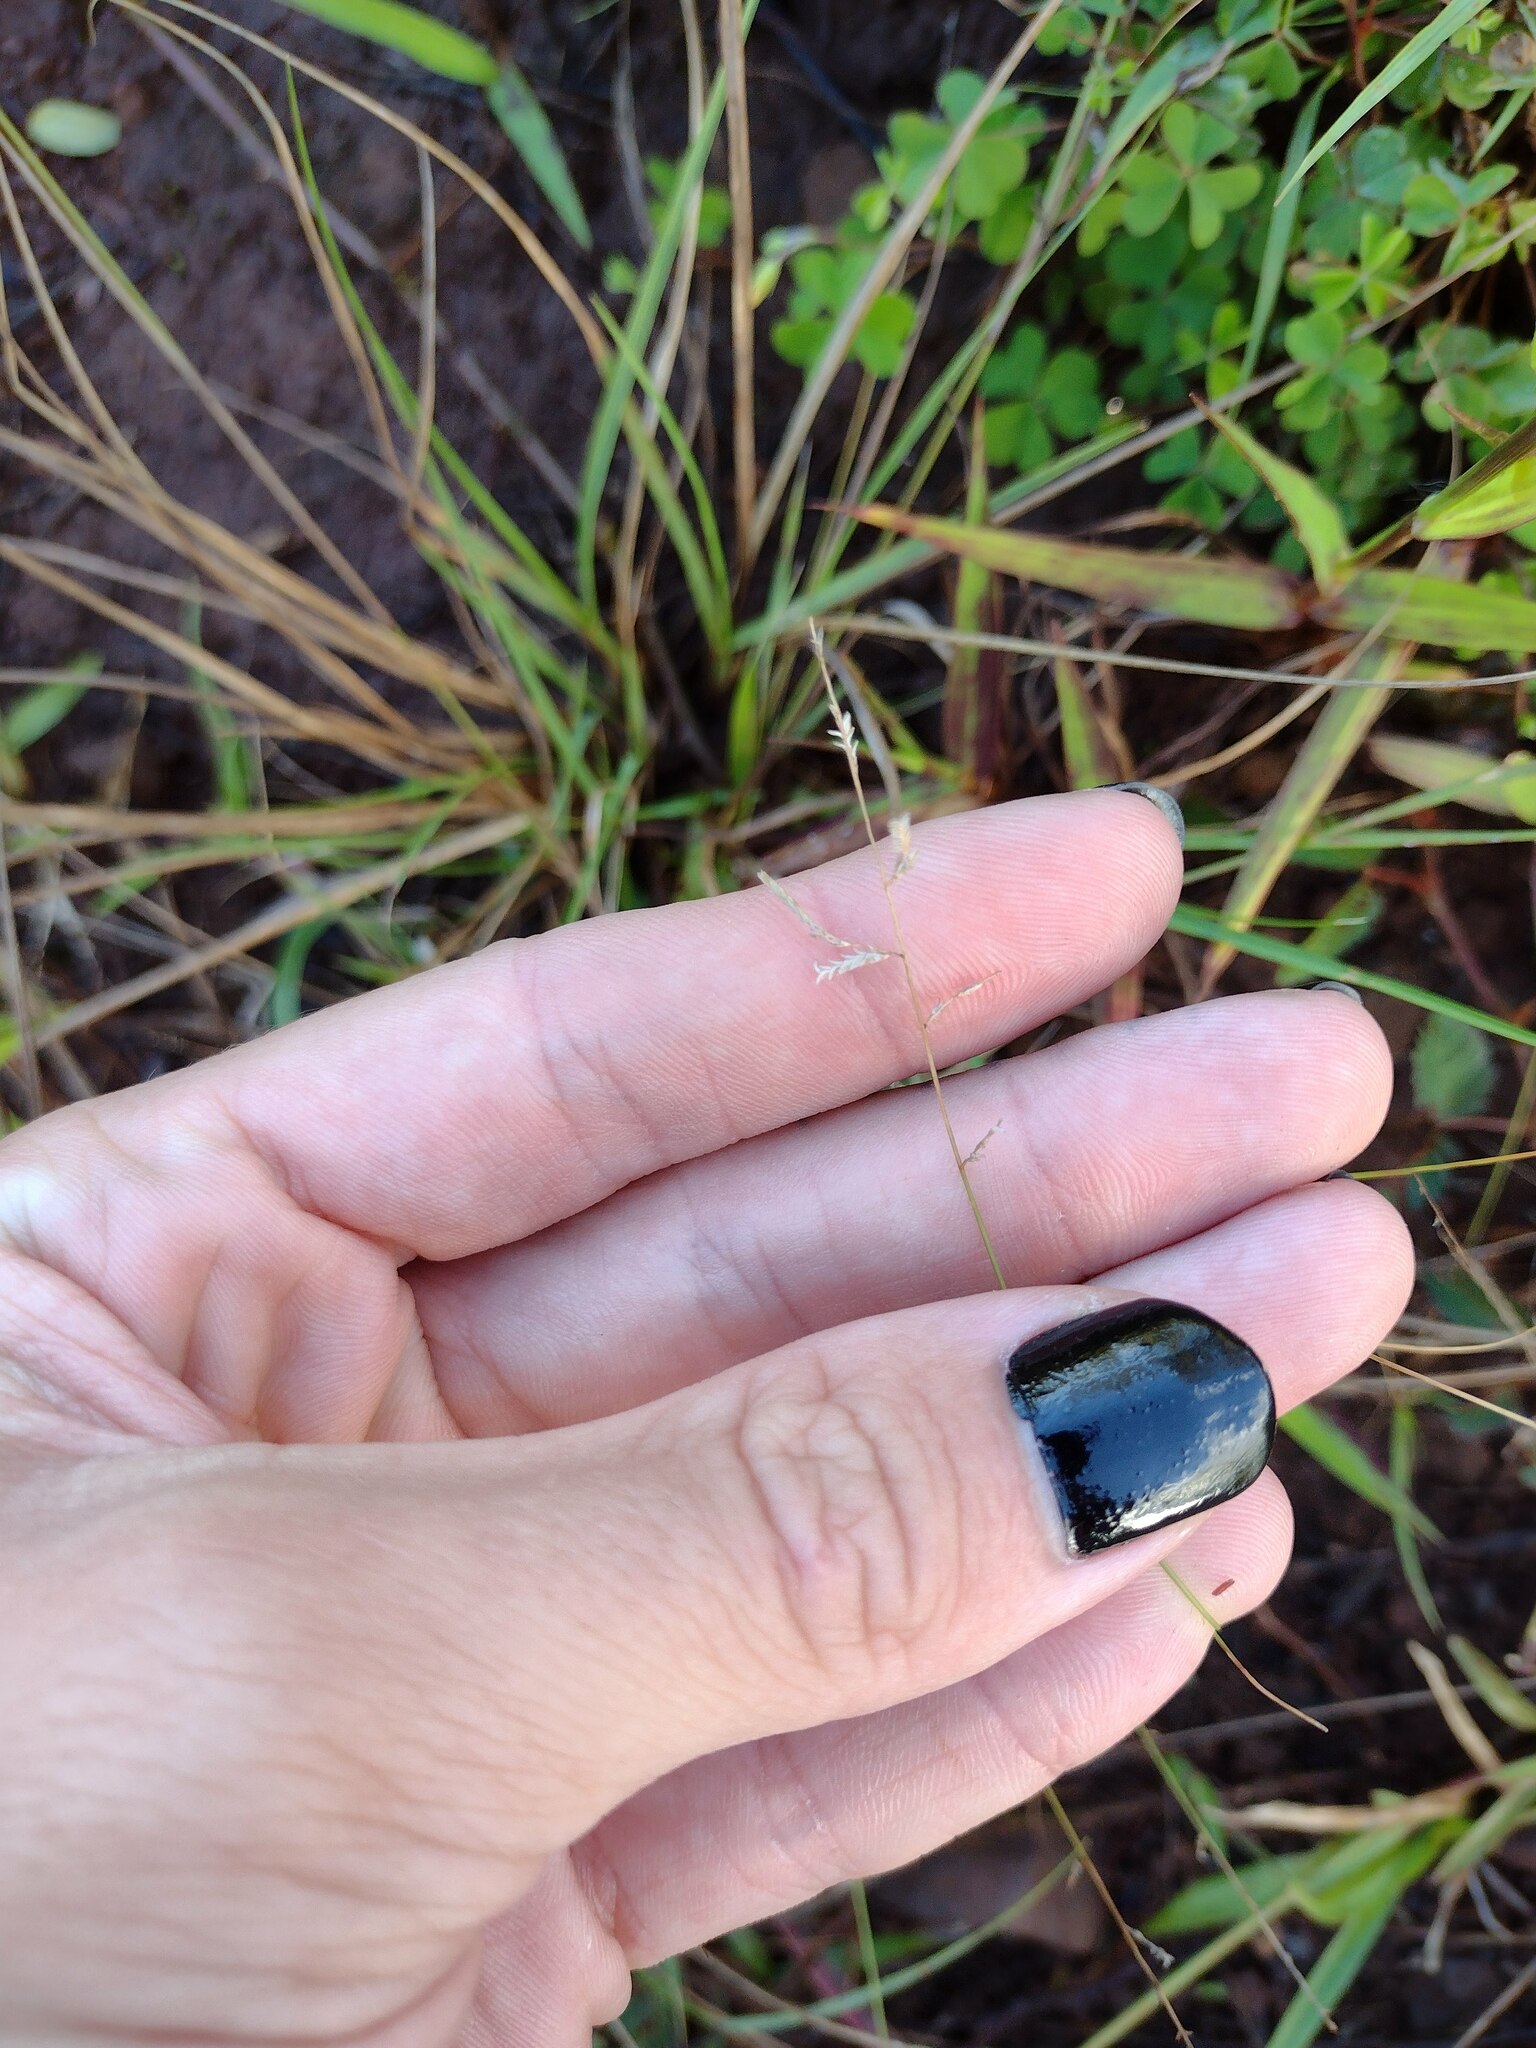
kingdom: Plantae
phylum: Tracheophyta
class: Liliopsida
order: Poales
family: Poaceae
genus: Eragrostis
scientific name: Eragrostis brownii
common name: Lovegrass
